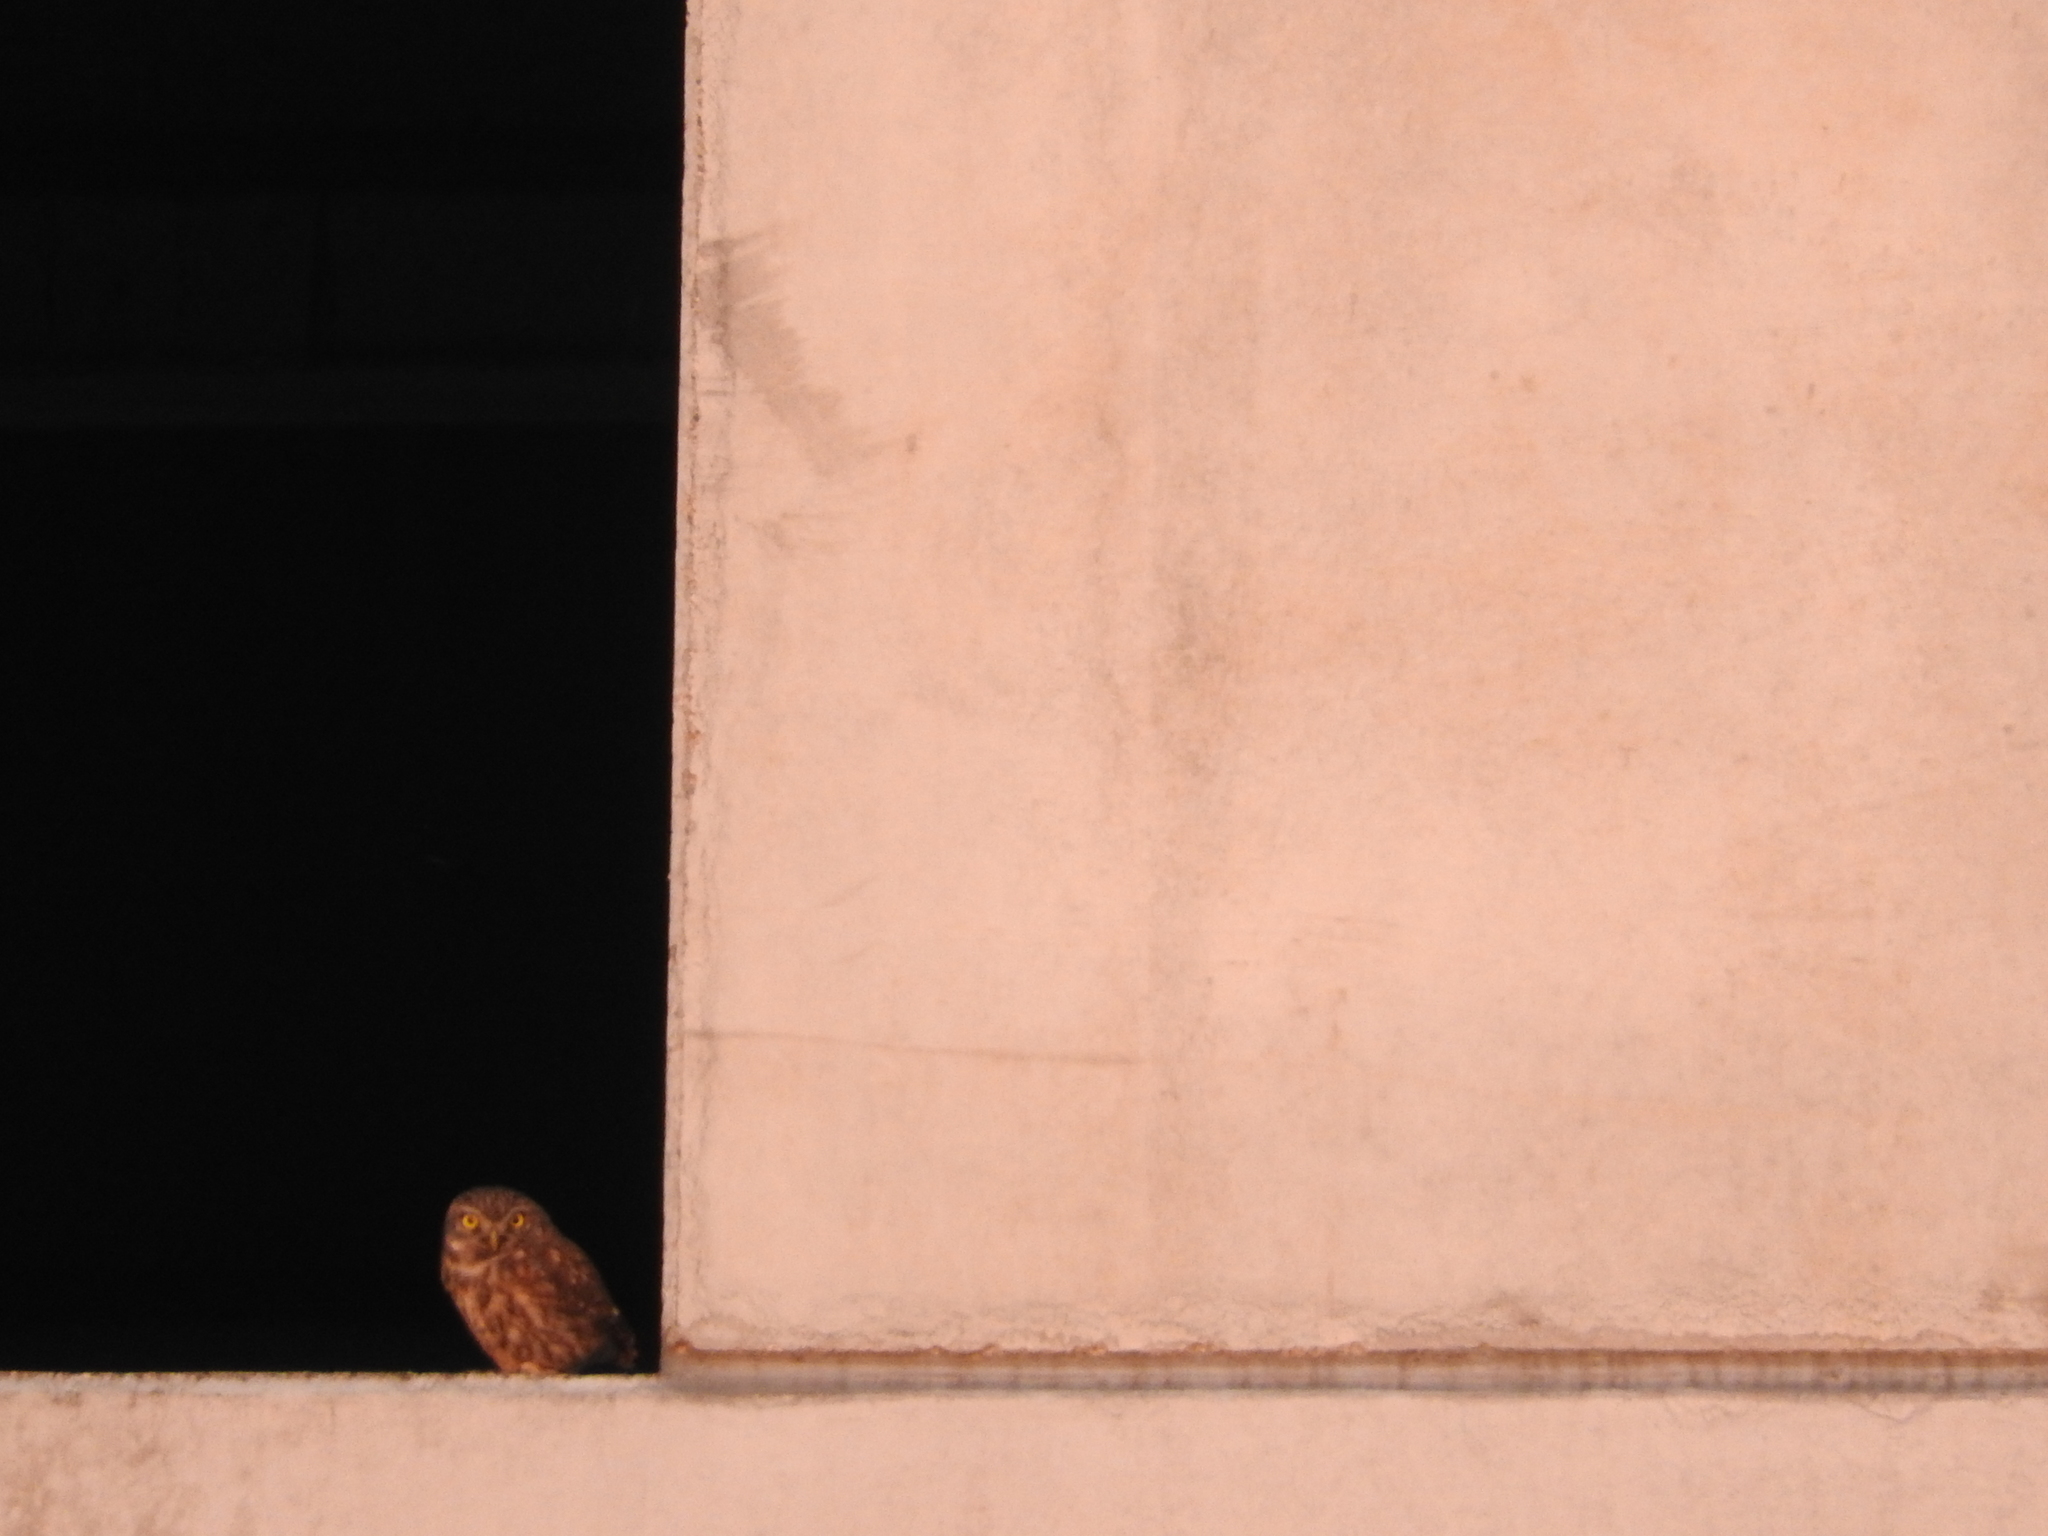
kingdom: Animalia
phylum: Chordata
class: Aves
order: Strigiformes
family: Strigidae
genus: Athene
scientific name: Athene noctua
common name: Little owl
